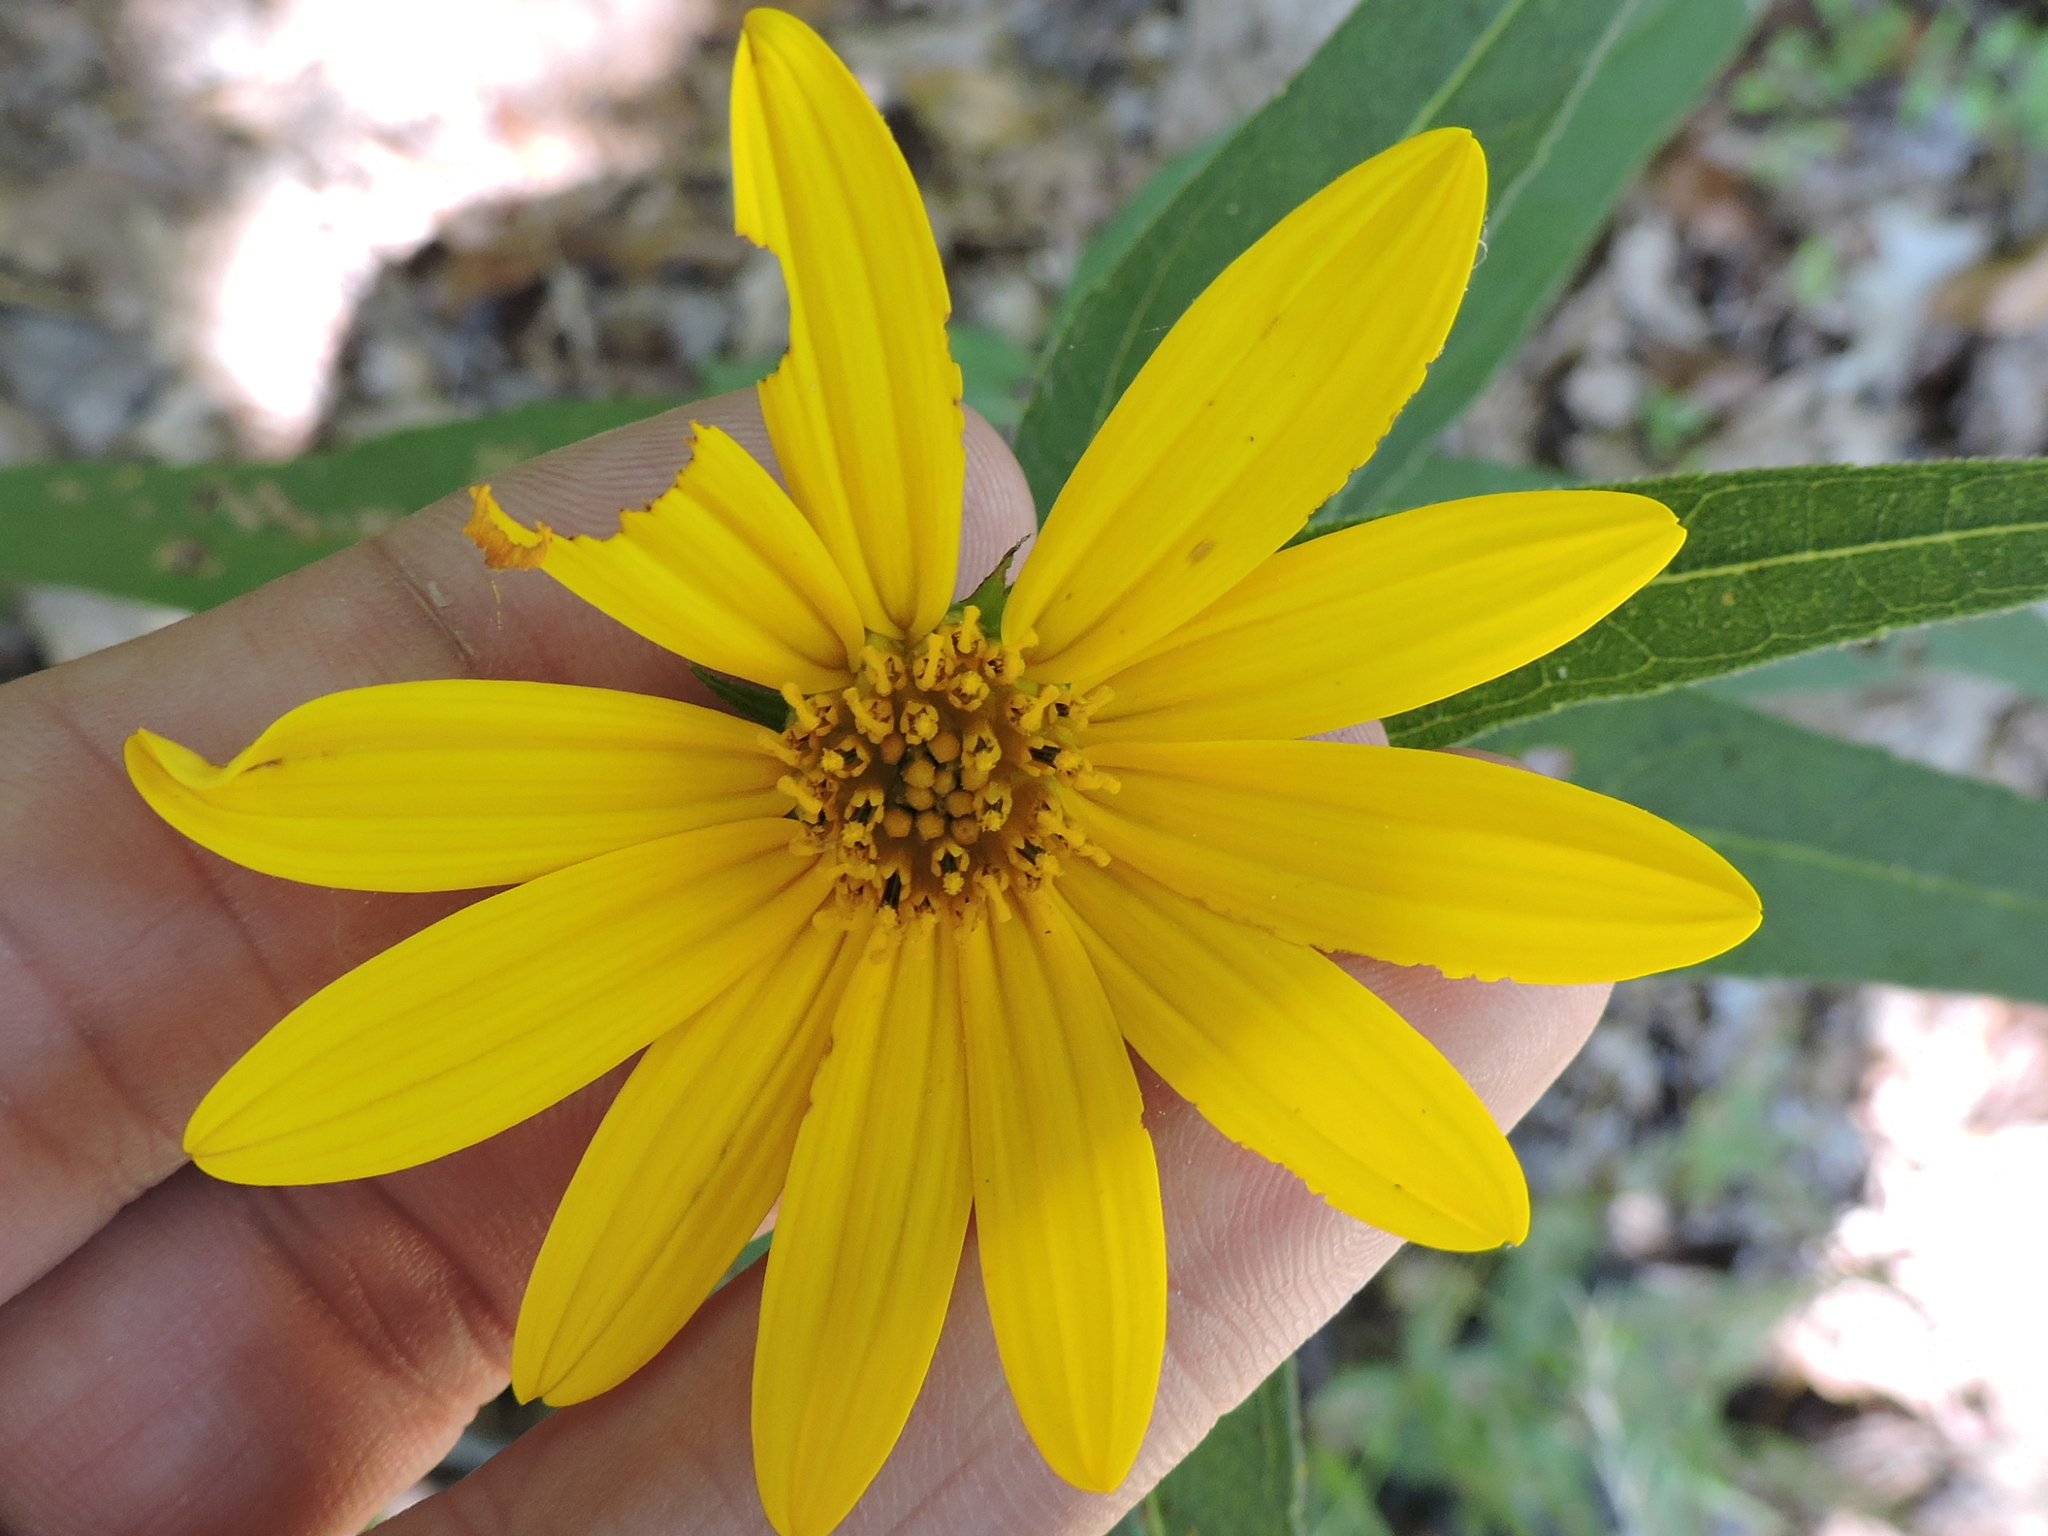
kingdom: Plantae
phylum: Tracheophyta
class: Magnoliopsida
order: Asterales
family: Asteraceae
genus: Helianthus
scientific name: Helianthus hirsutus
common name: Hairy sunflower
